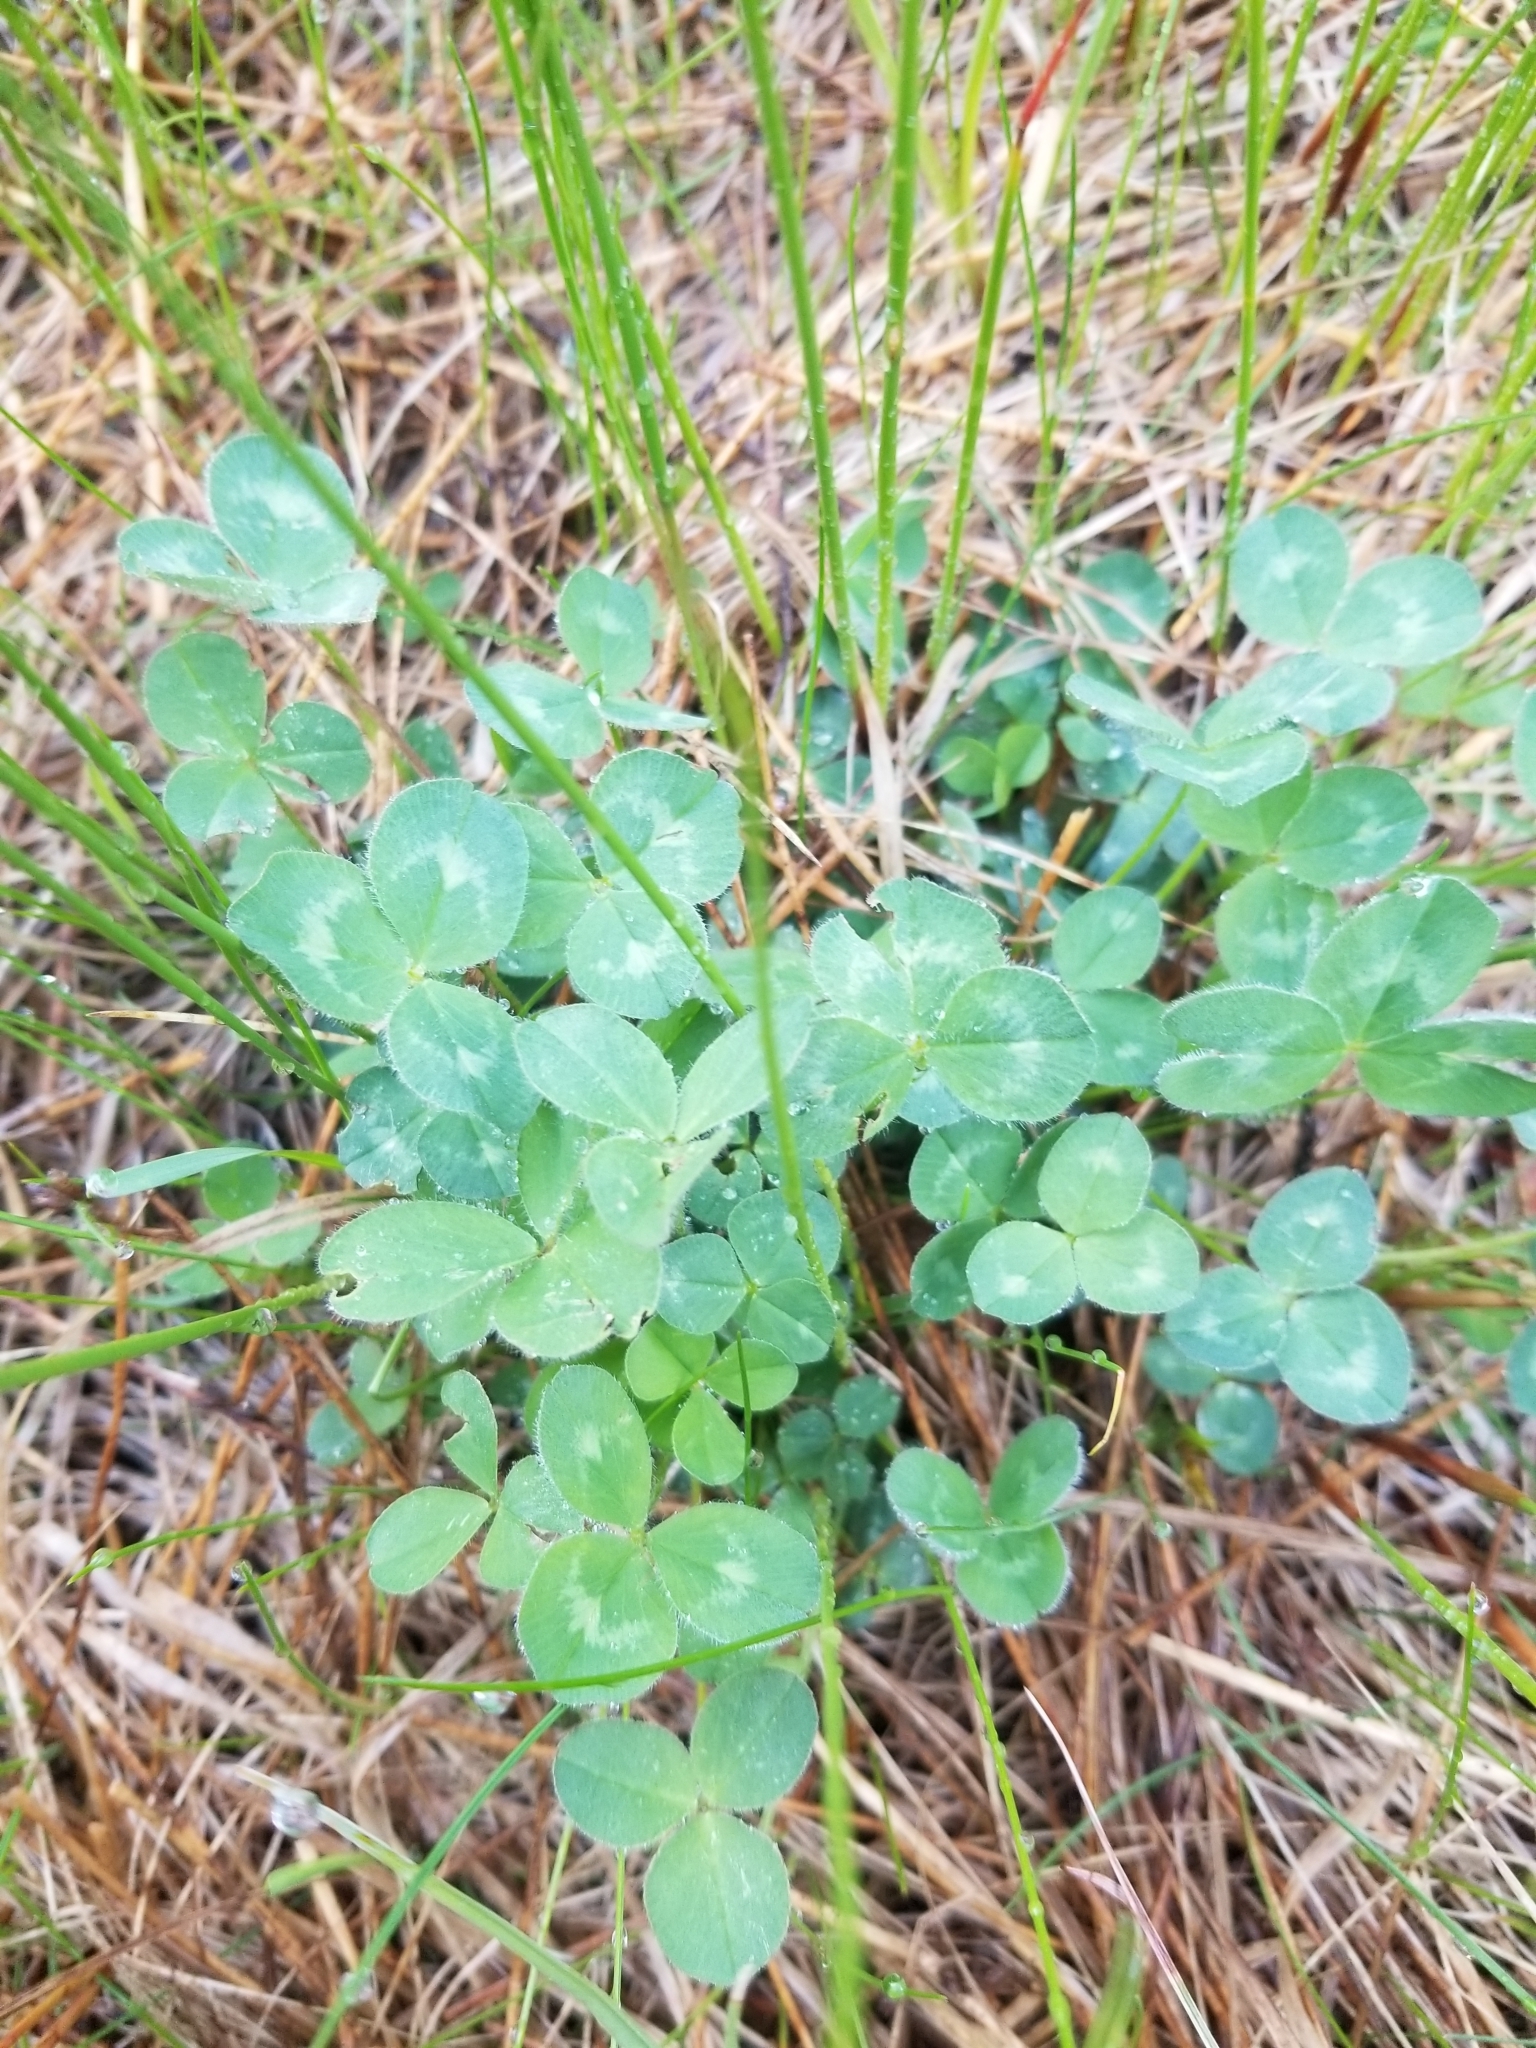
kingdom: Plantae
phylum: Tracheophyta
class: Magnoliopsida
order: Fabales
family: Fabaceae
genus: Trifolium
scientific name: Trifolium pratense
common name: Red clover
